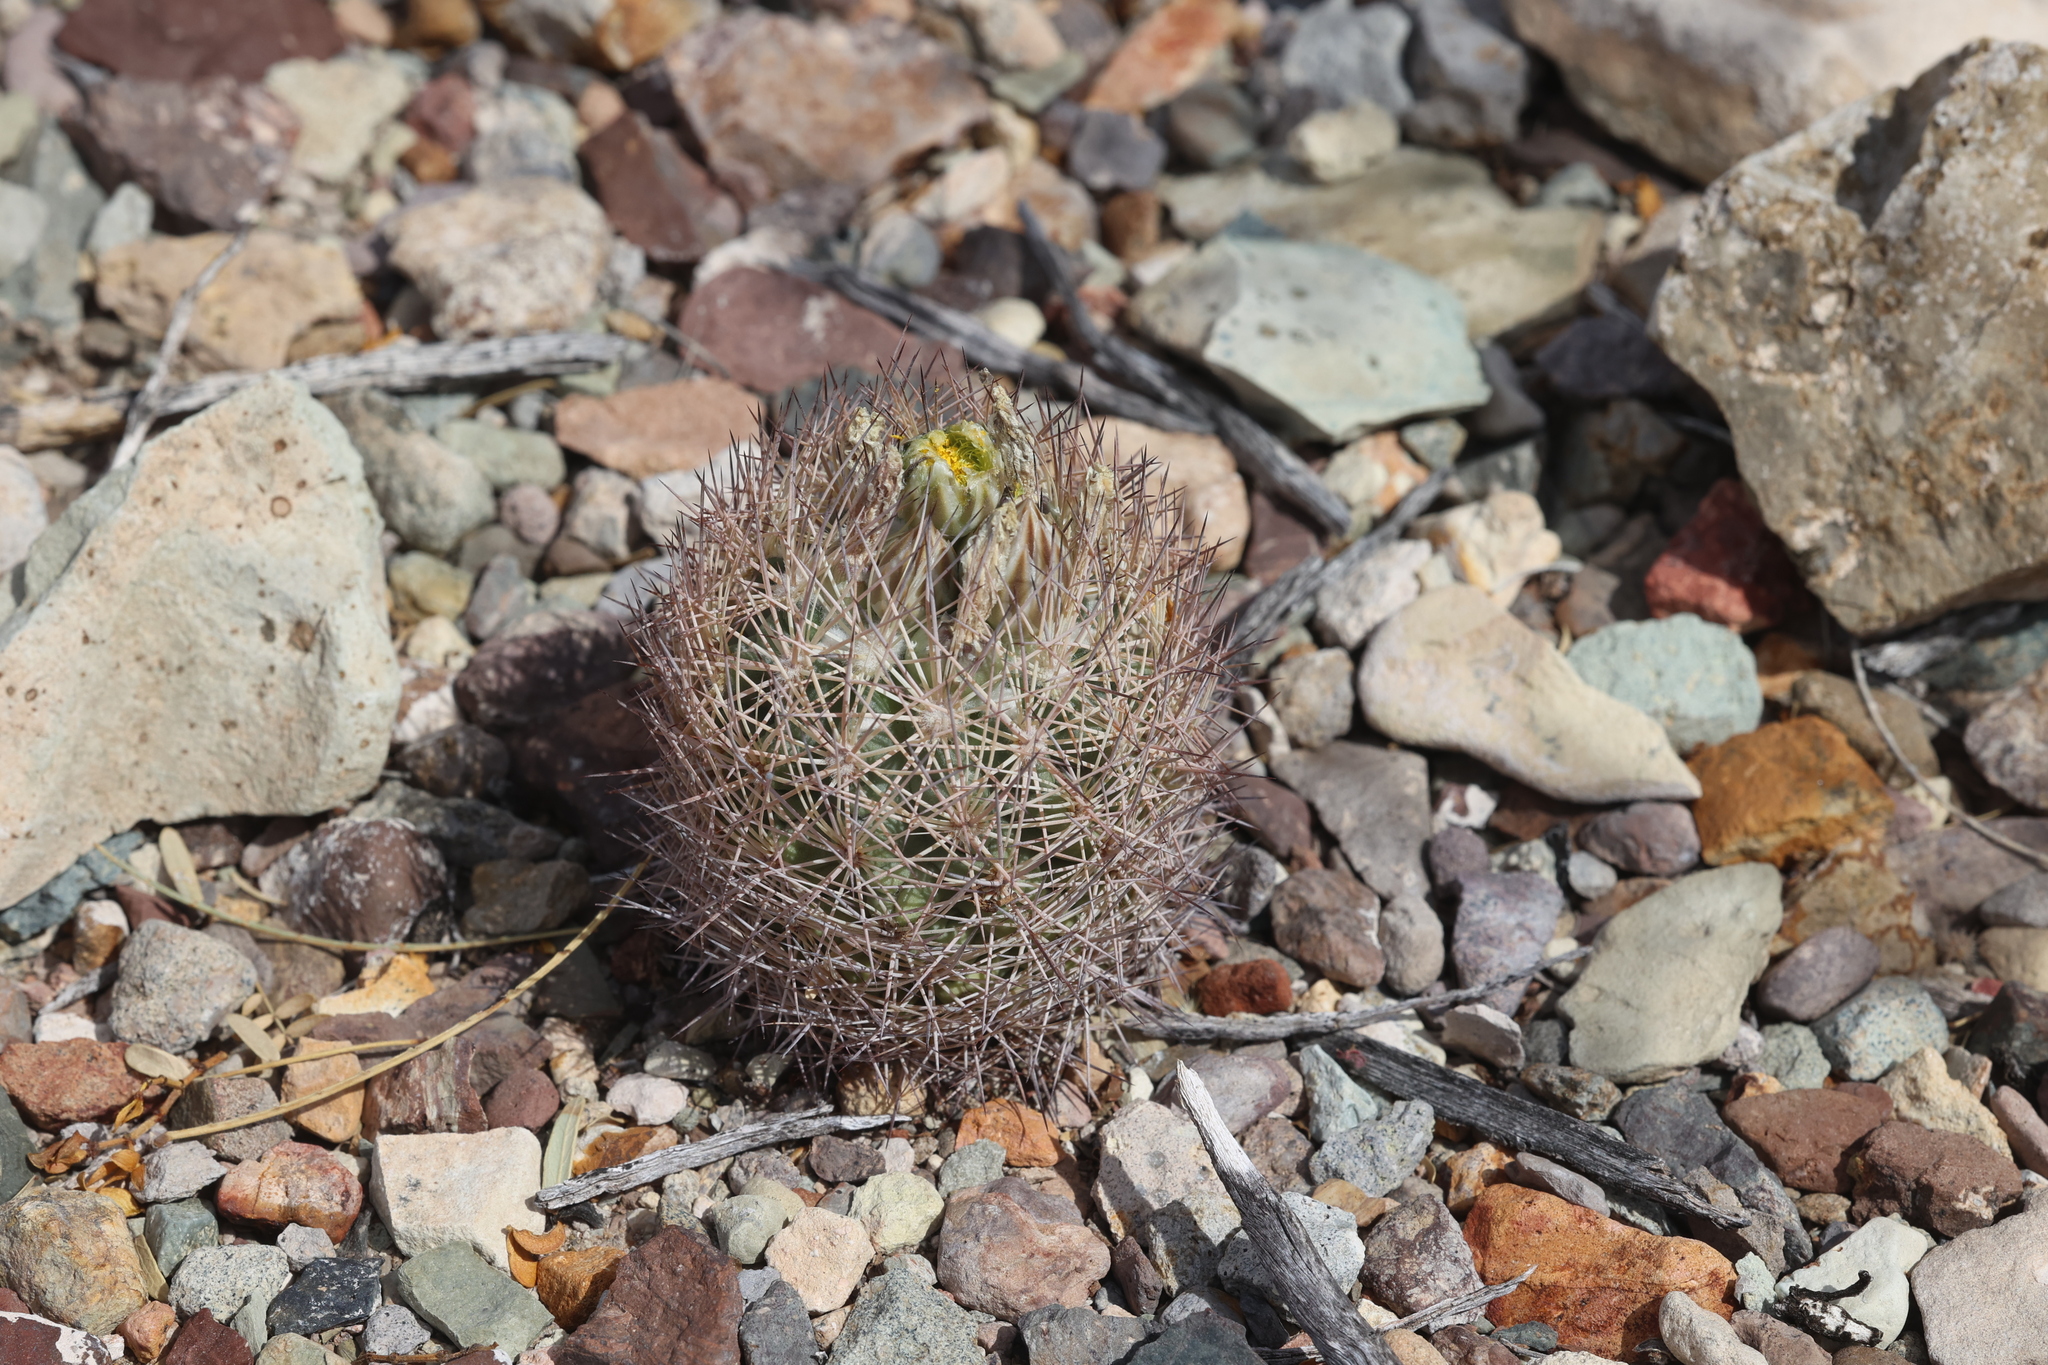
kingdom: Plantae
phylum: Tracheophyta
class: Magnoliopsida
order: Caryophyllales
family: Cactaceae
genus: Sclerocactus
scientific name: Sclerocactus warnockii
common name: Pineapple cactus
